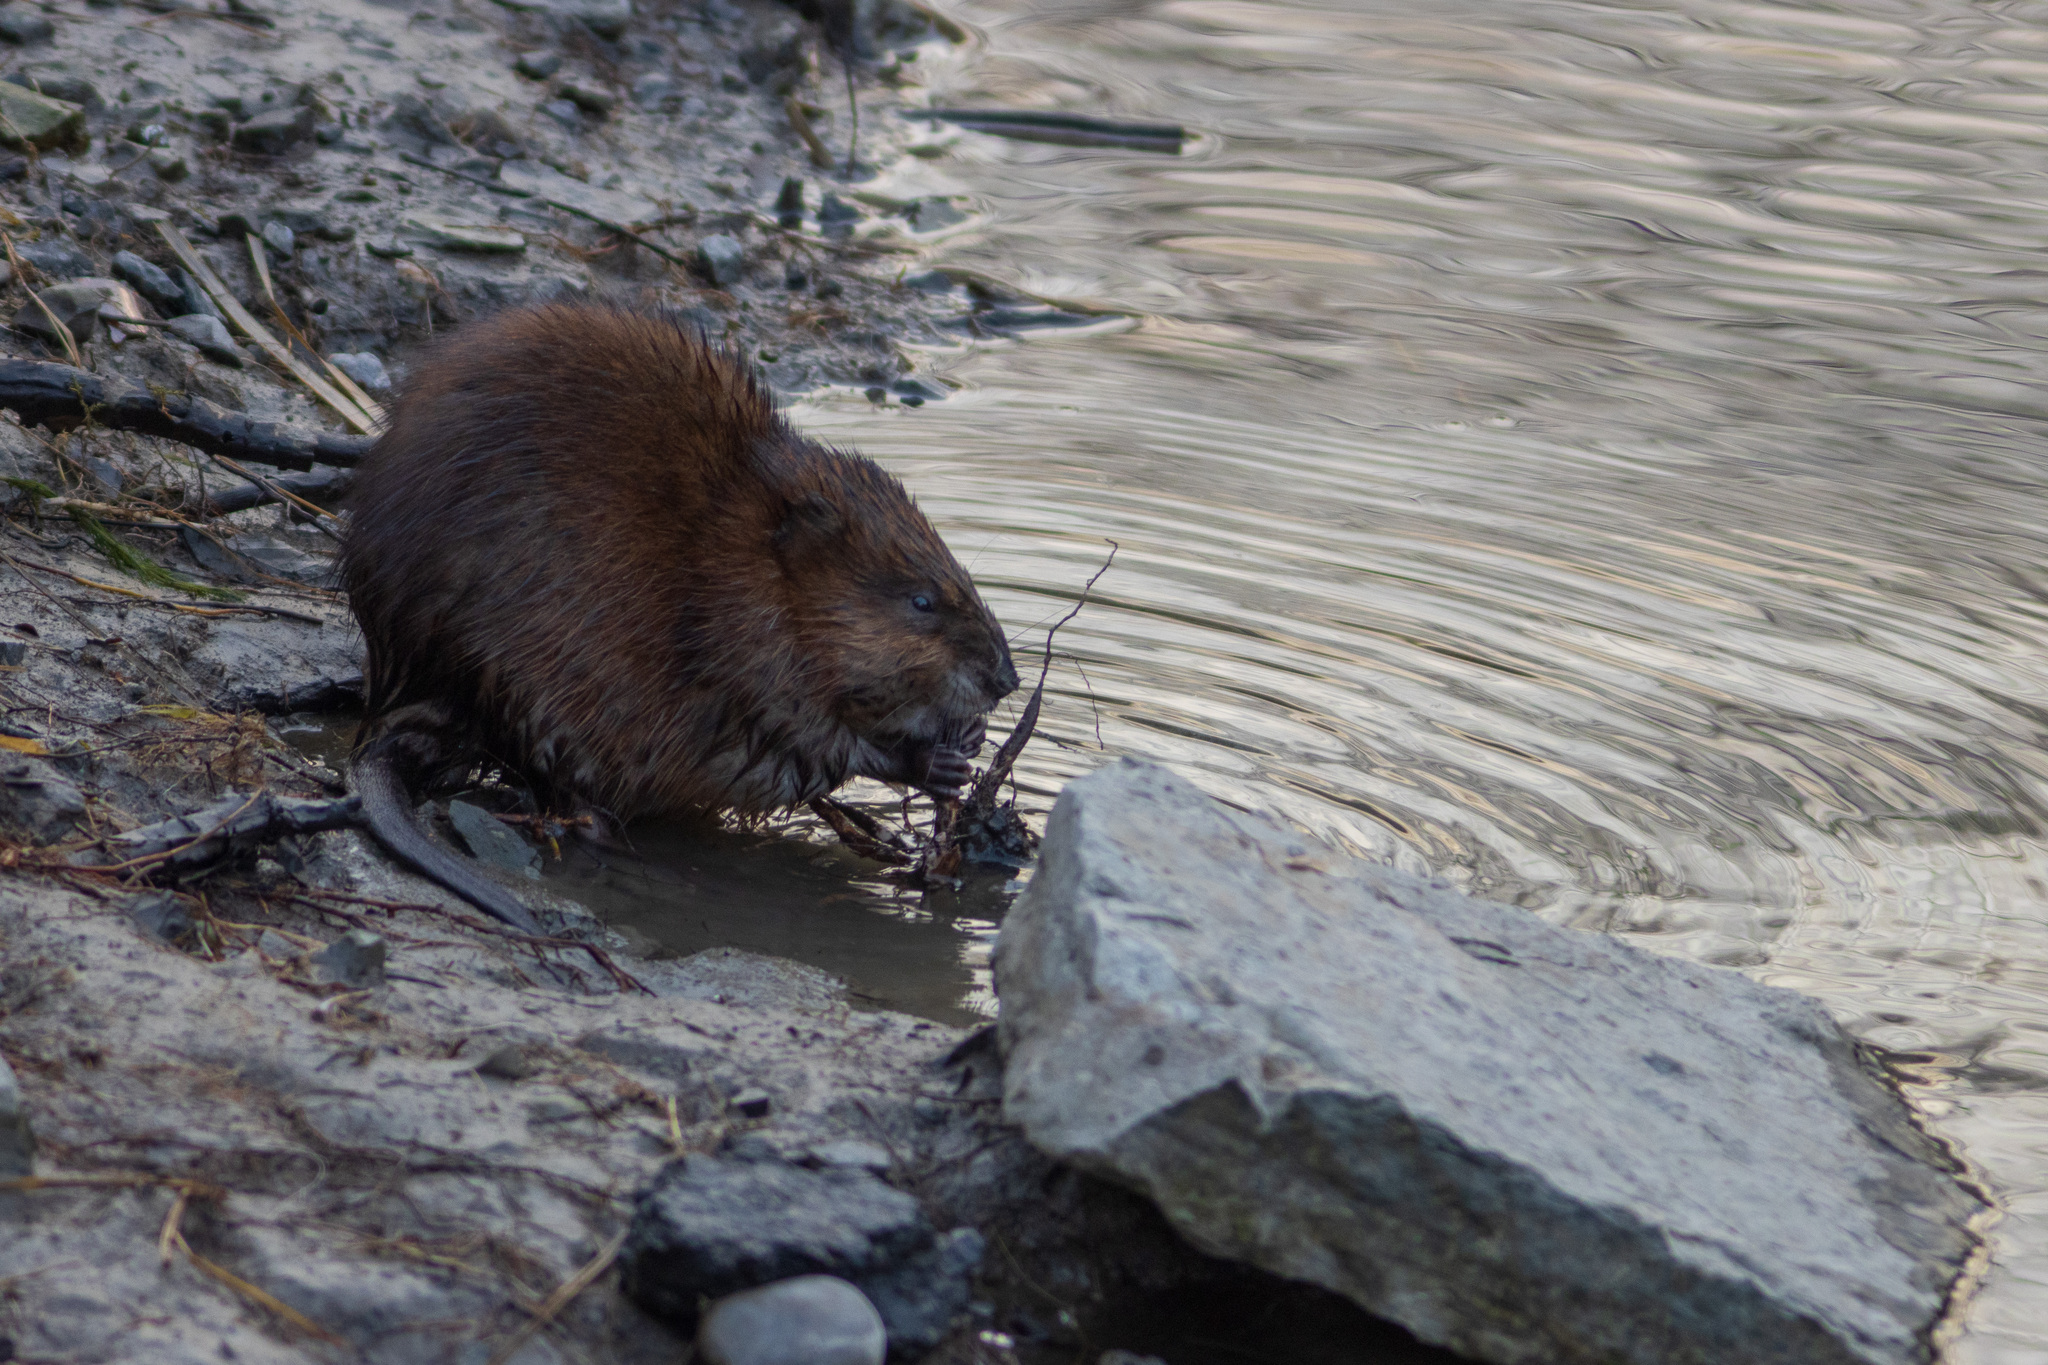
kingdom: Animalia
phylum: Chordata
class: Mammalia
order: Rodentia
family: Cricetidae
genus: Ondatra
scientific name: Ondatra zibethicus
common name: Muskrat
